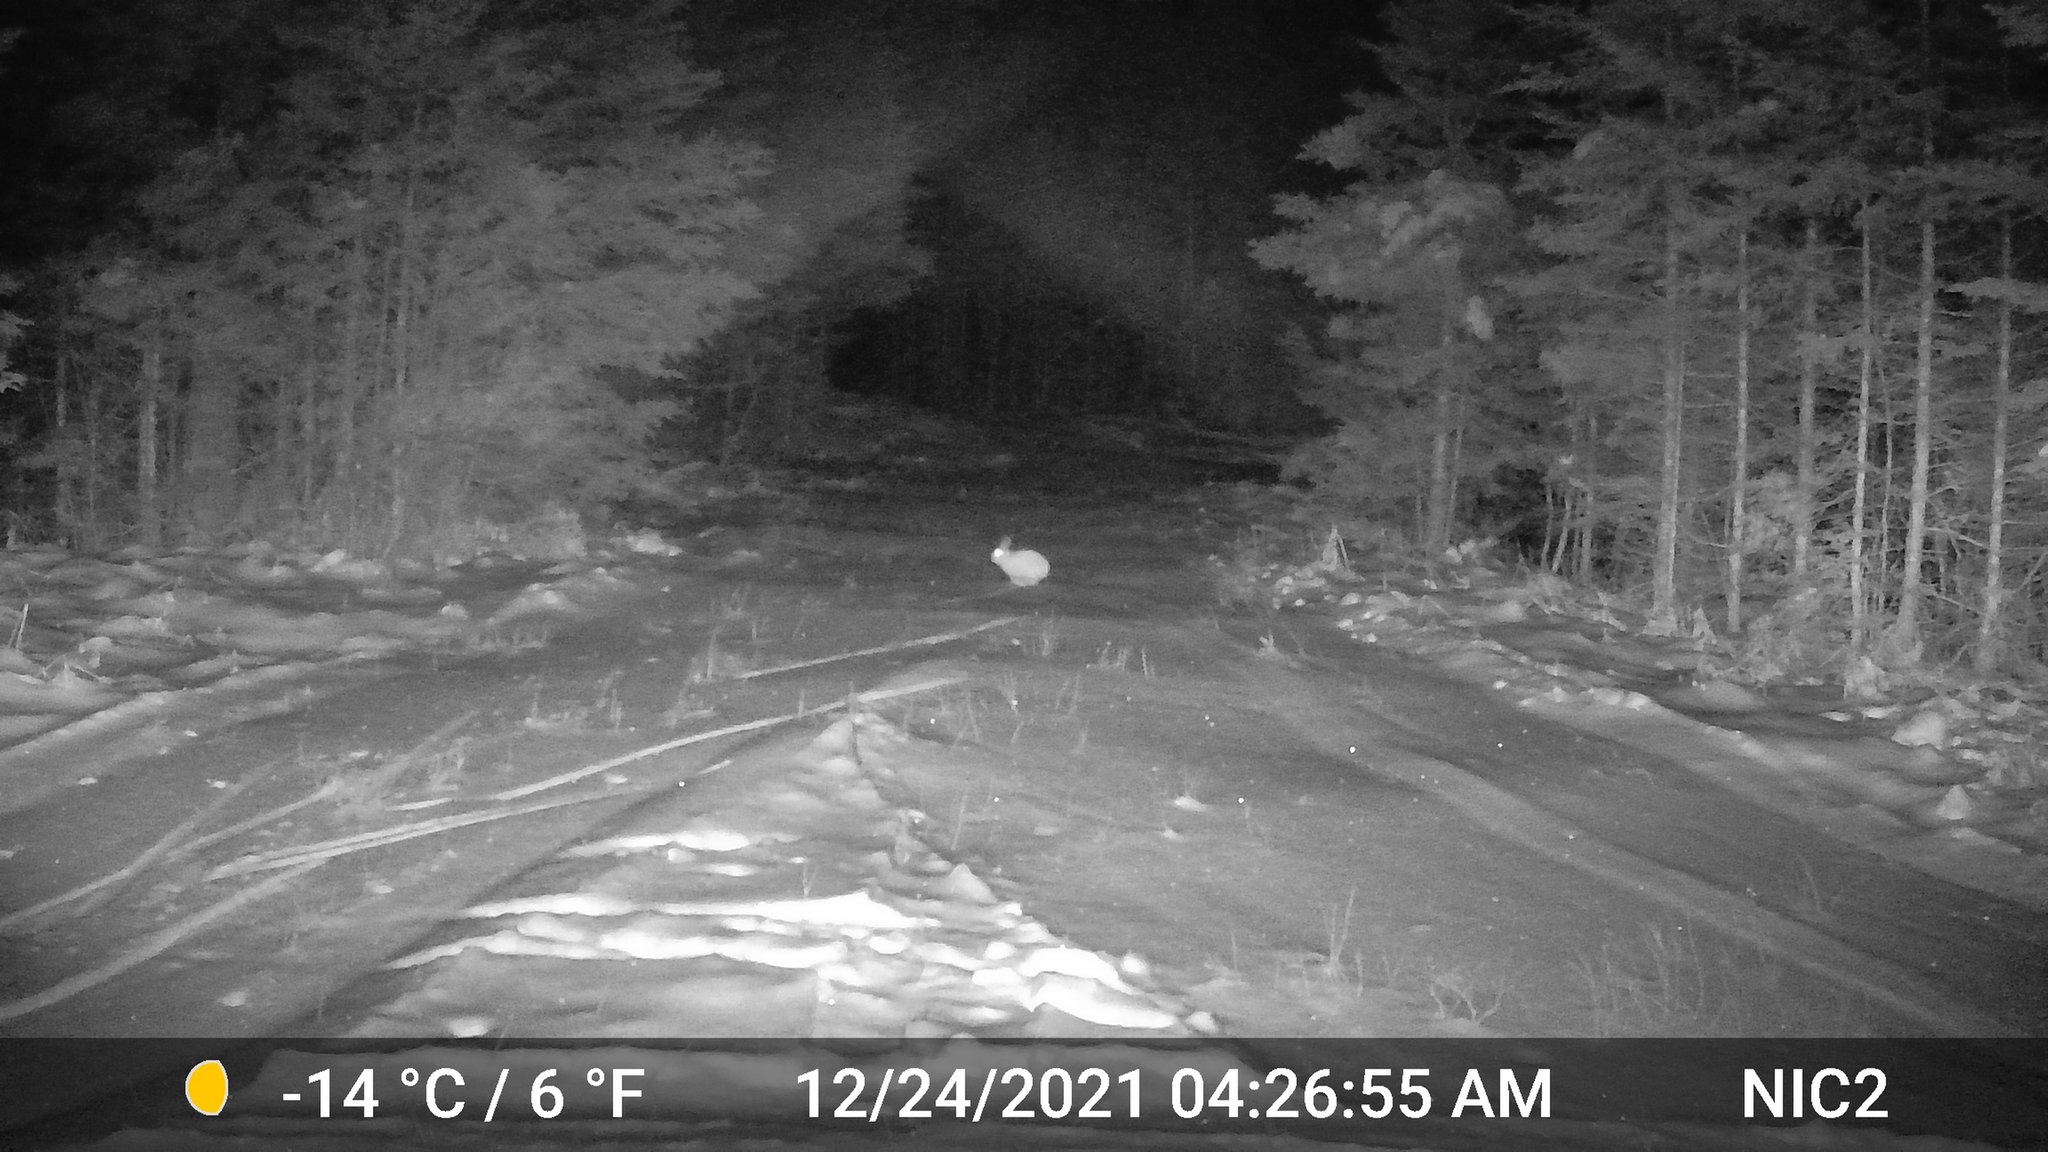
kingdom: Animalia
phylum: Chordata
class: Mammalia
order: Lagomorpha
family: Leporidae
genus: Lepus
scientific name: Lepus americanus
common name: Snowshoe hare
